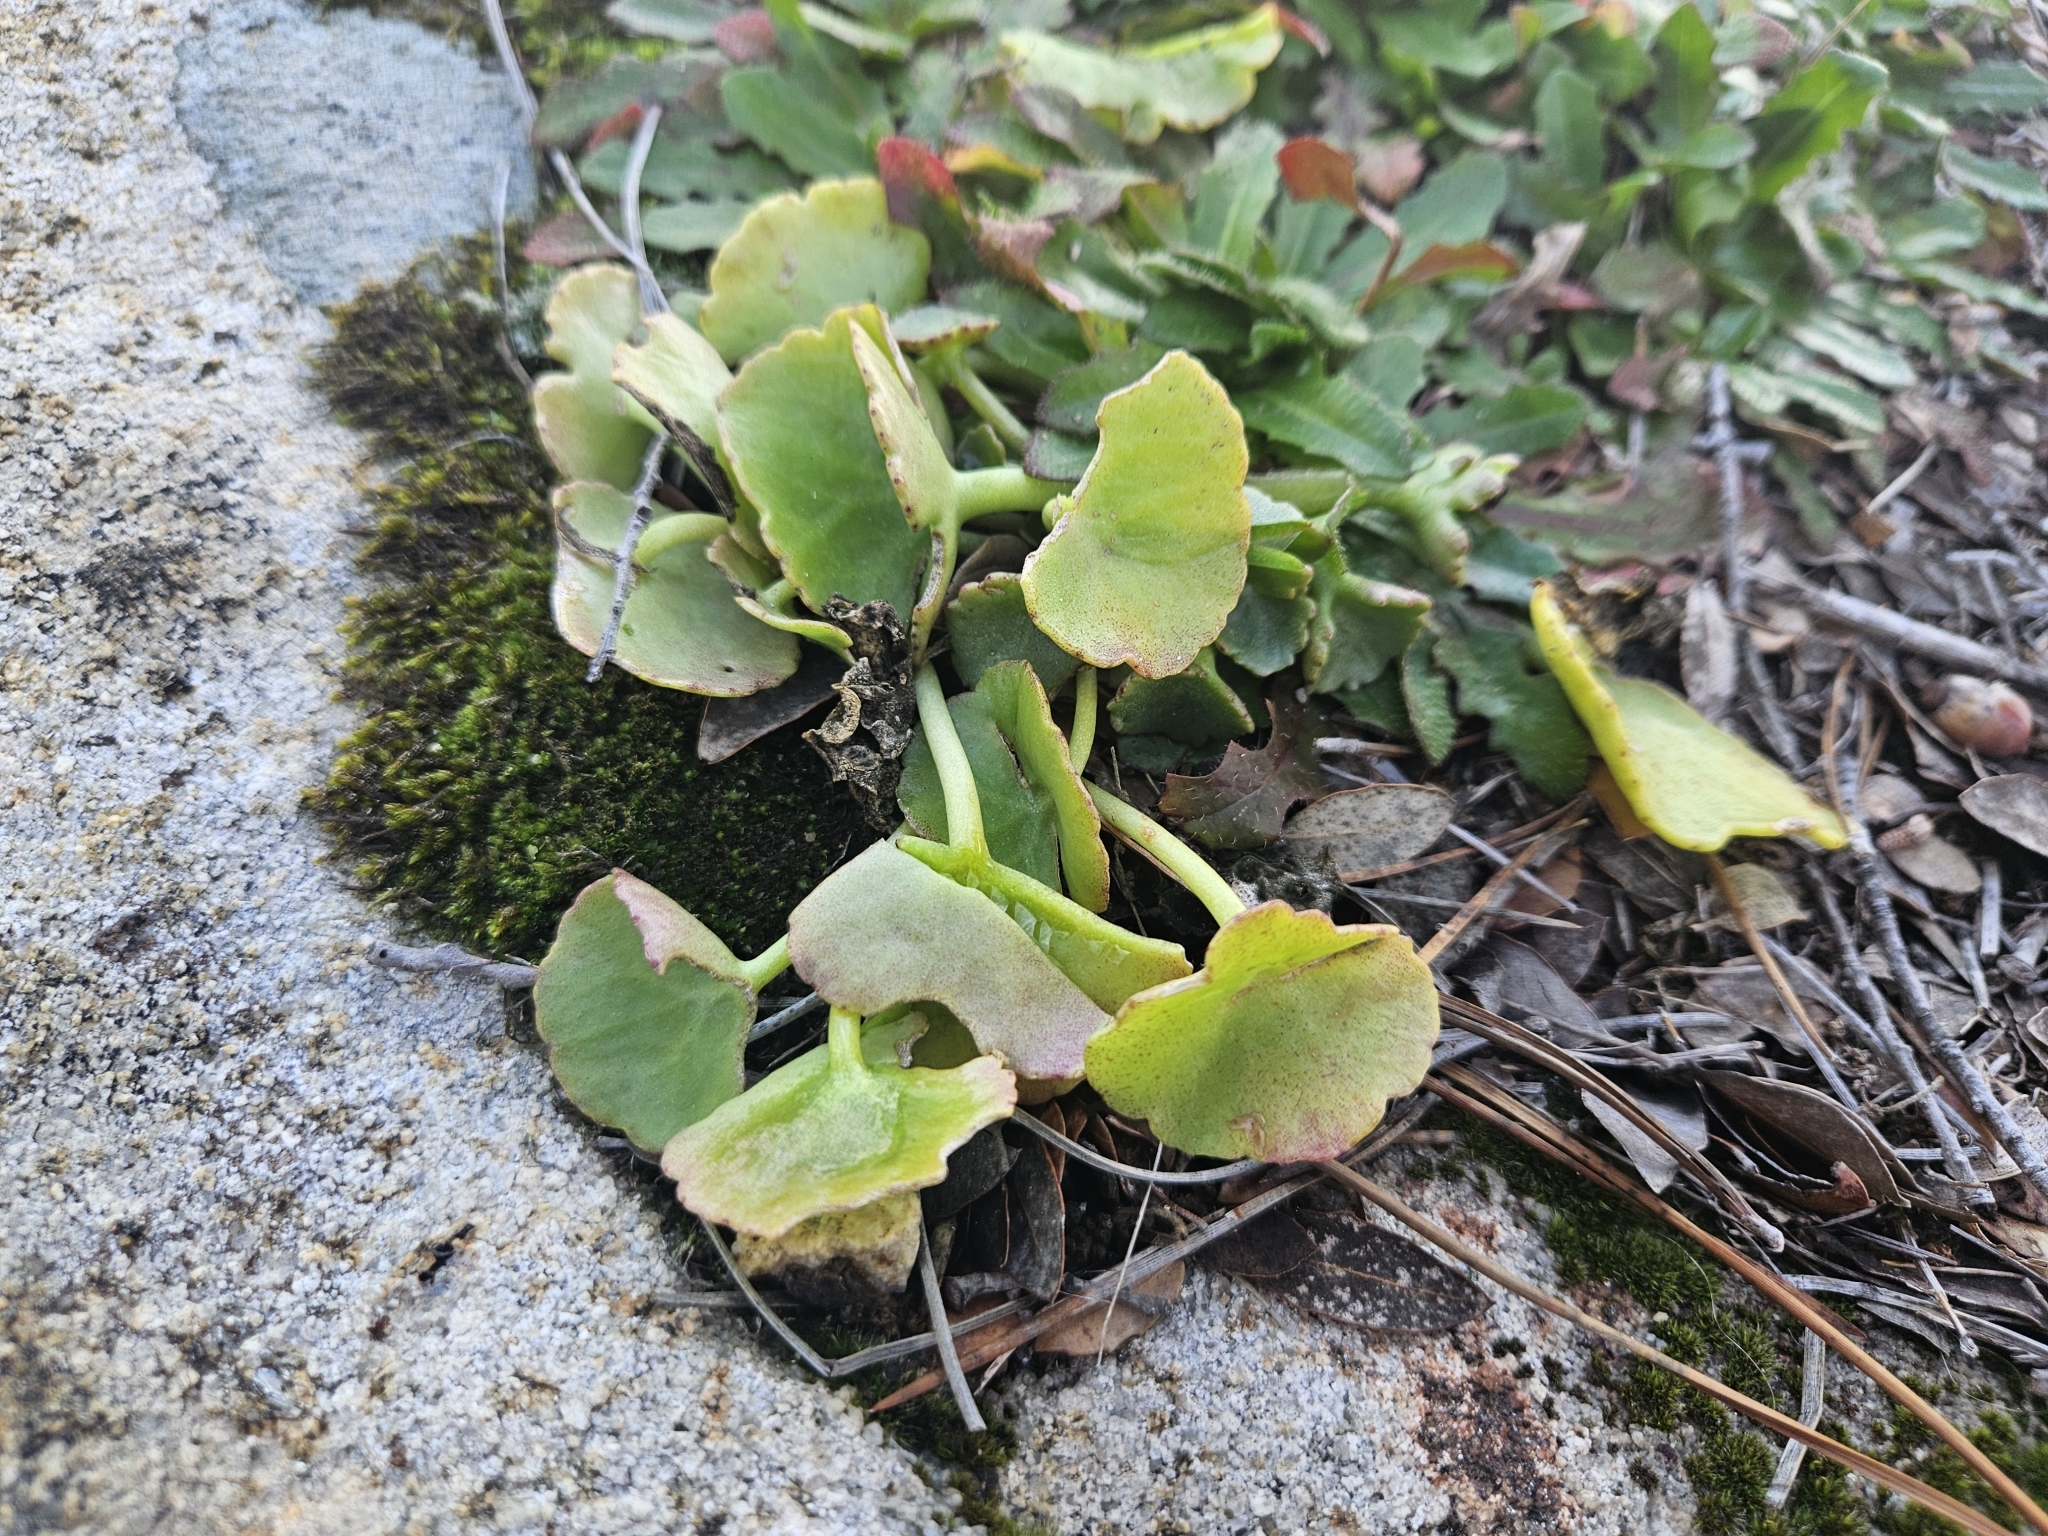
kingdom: Plantae
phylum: Tracheophyta
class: Magnoliopsida
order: Saxifragales
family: Crassulaceae
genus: Umbilicus
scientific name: Umbilicus rupestris
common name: Navelwort
